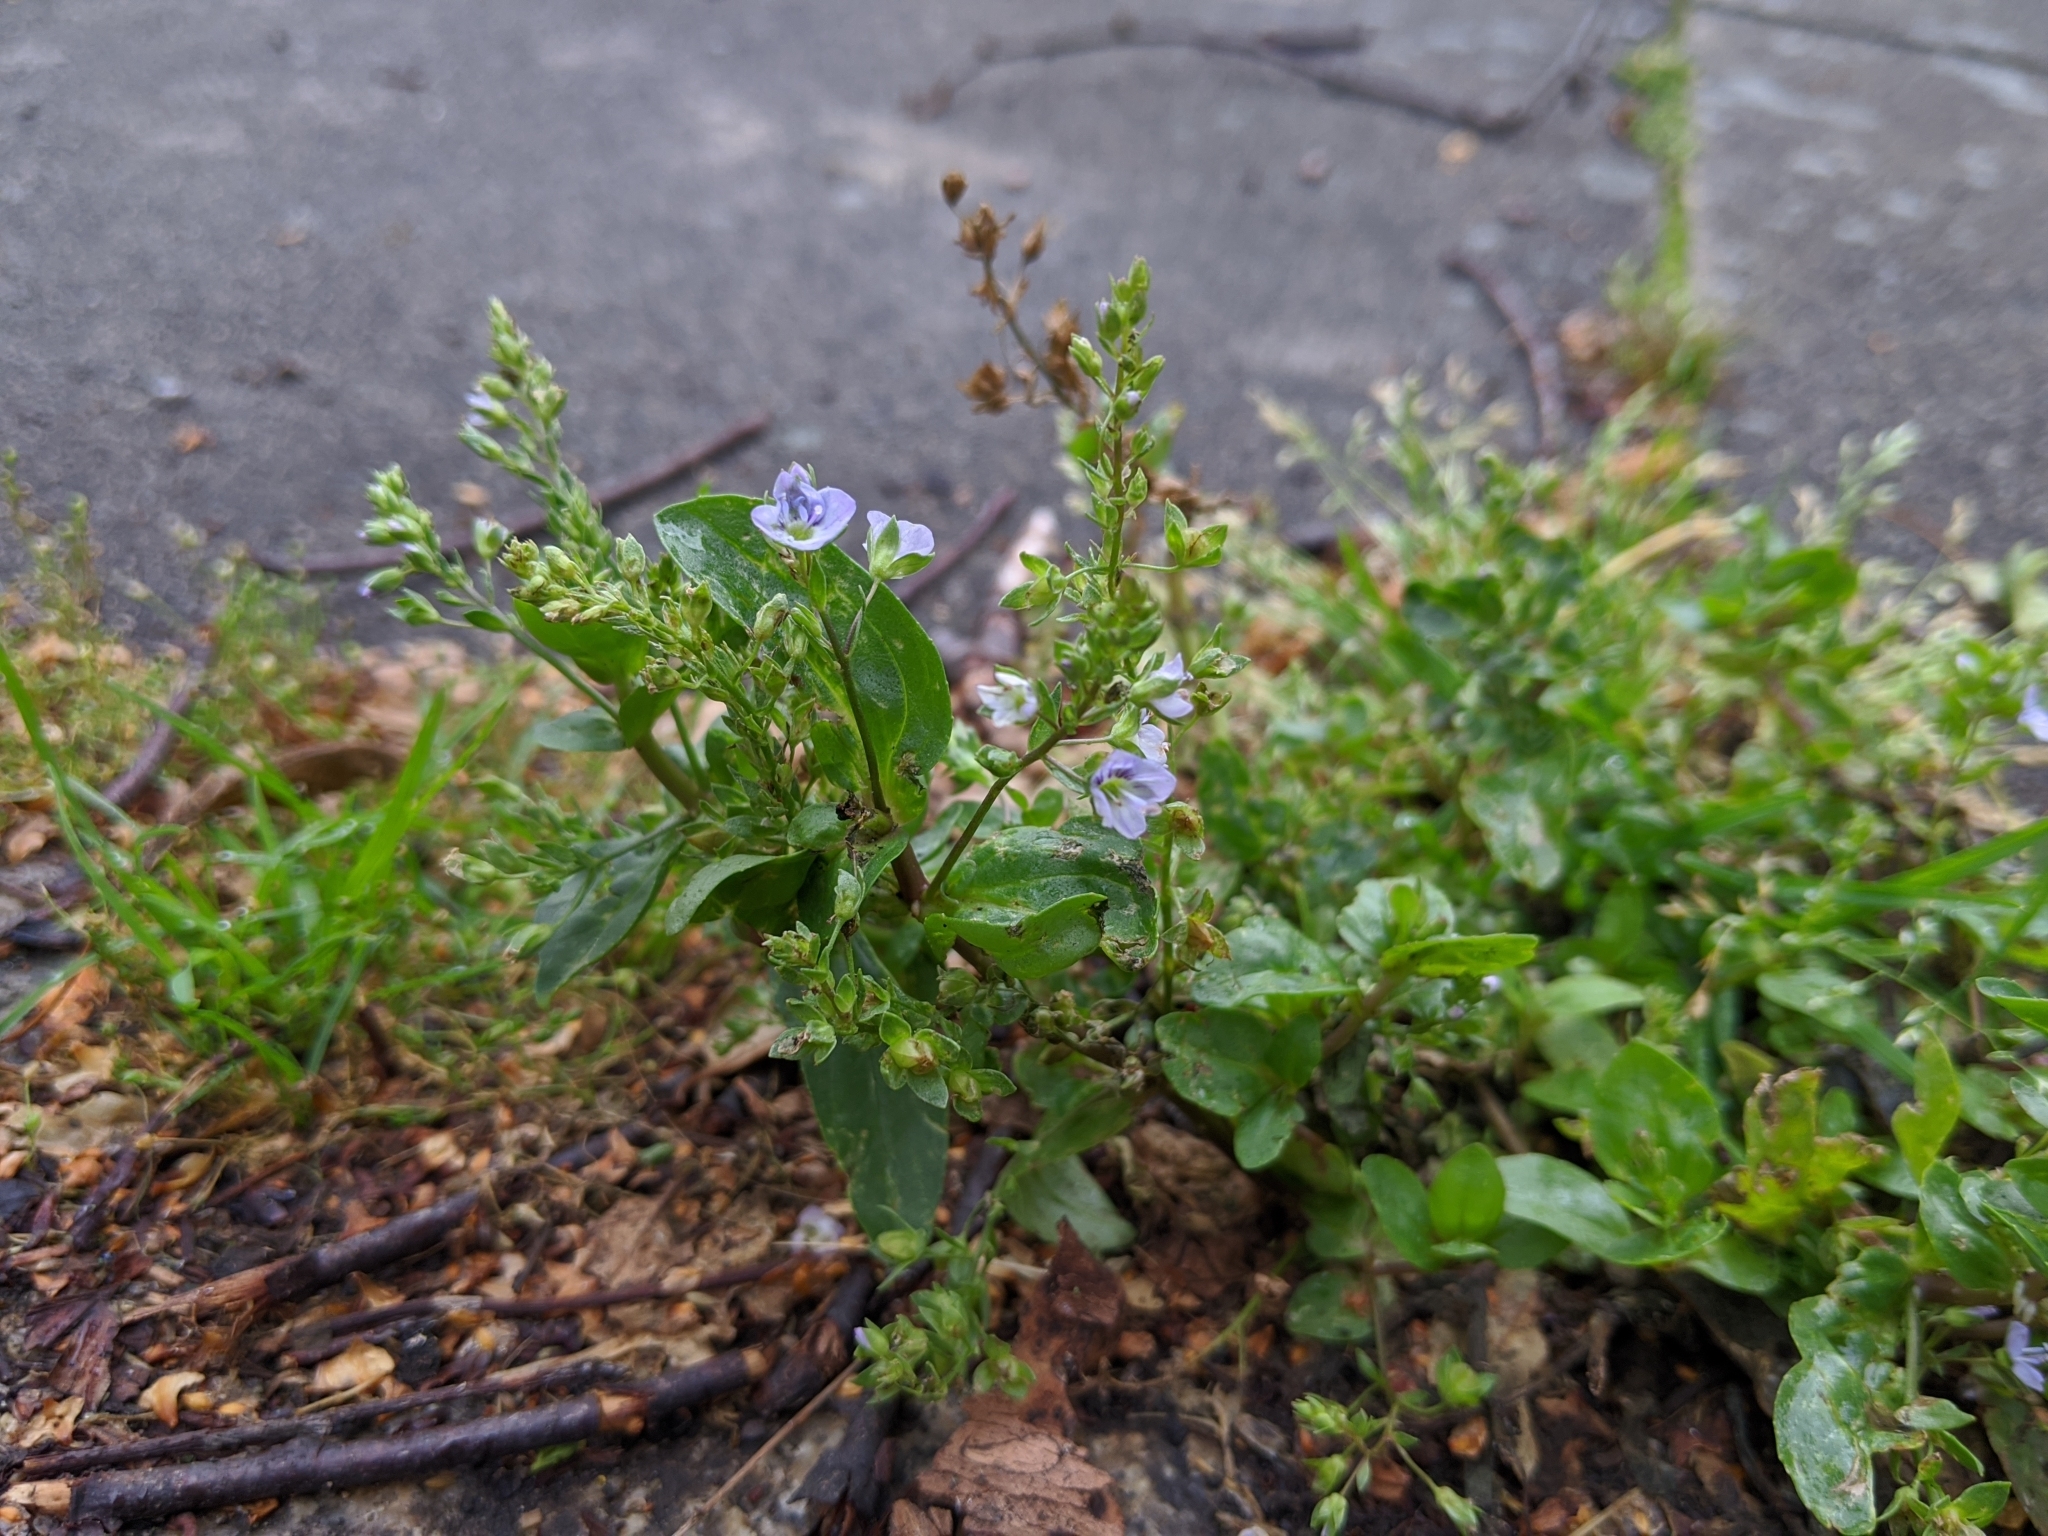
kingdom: Plantae
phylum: Tracheophyta
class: Magnoliopsida
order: Lamiales
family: Plantaginaceae
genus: Veronica
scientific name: Veronica anagallis-aquatica
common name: Water speedwell
